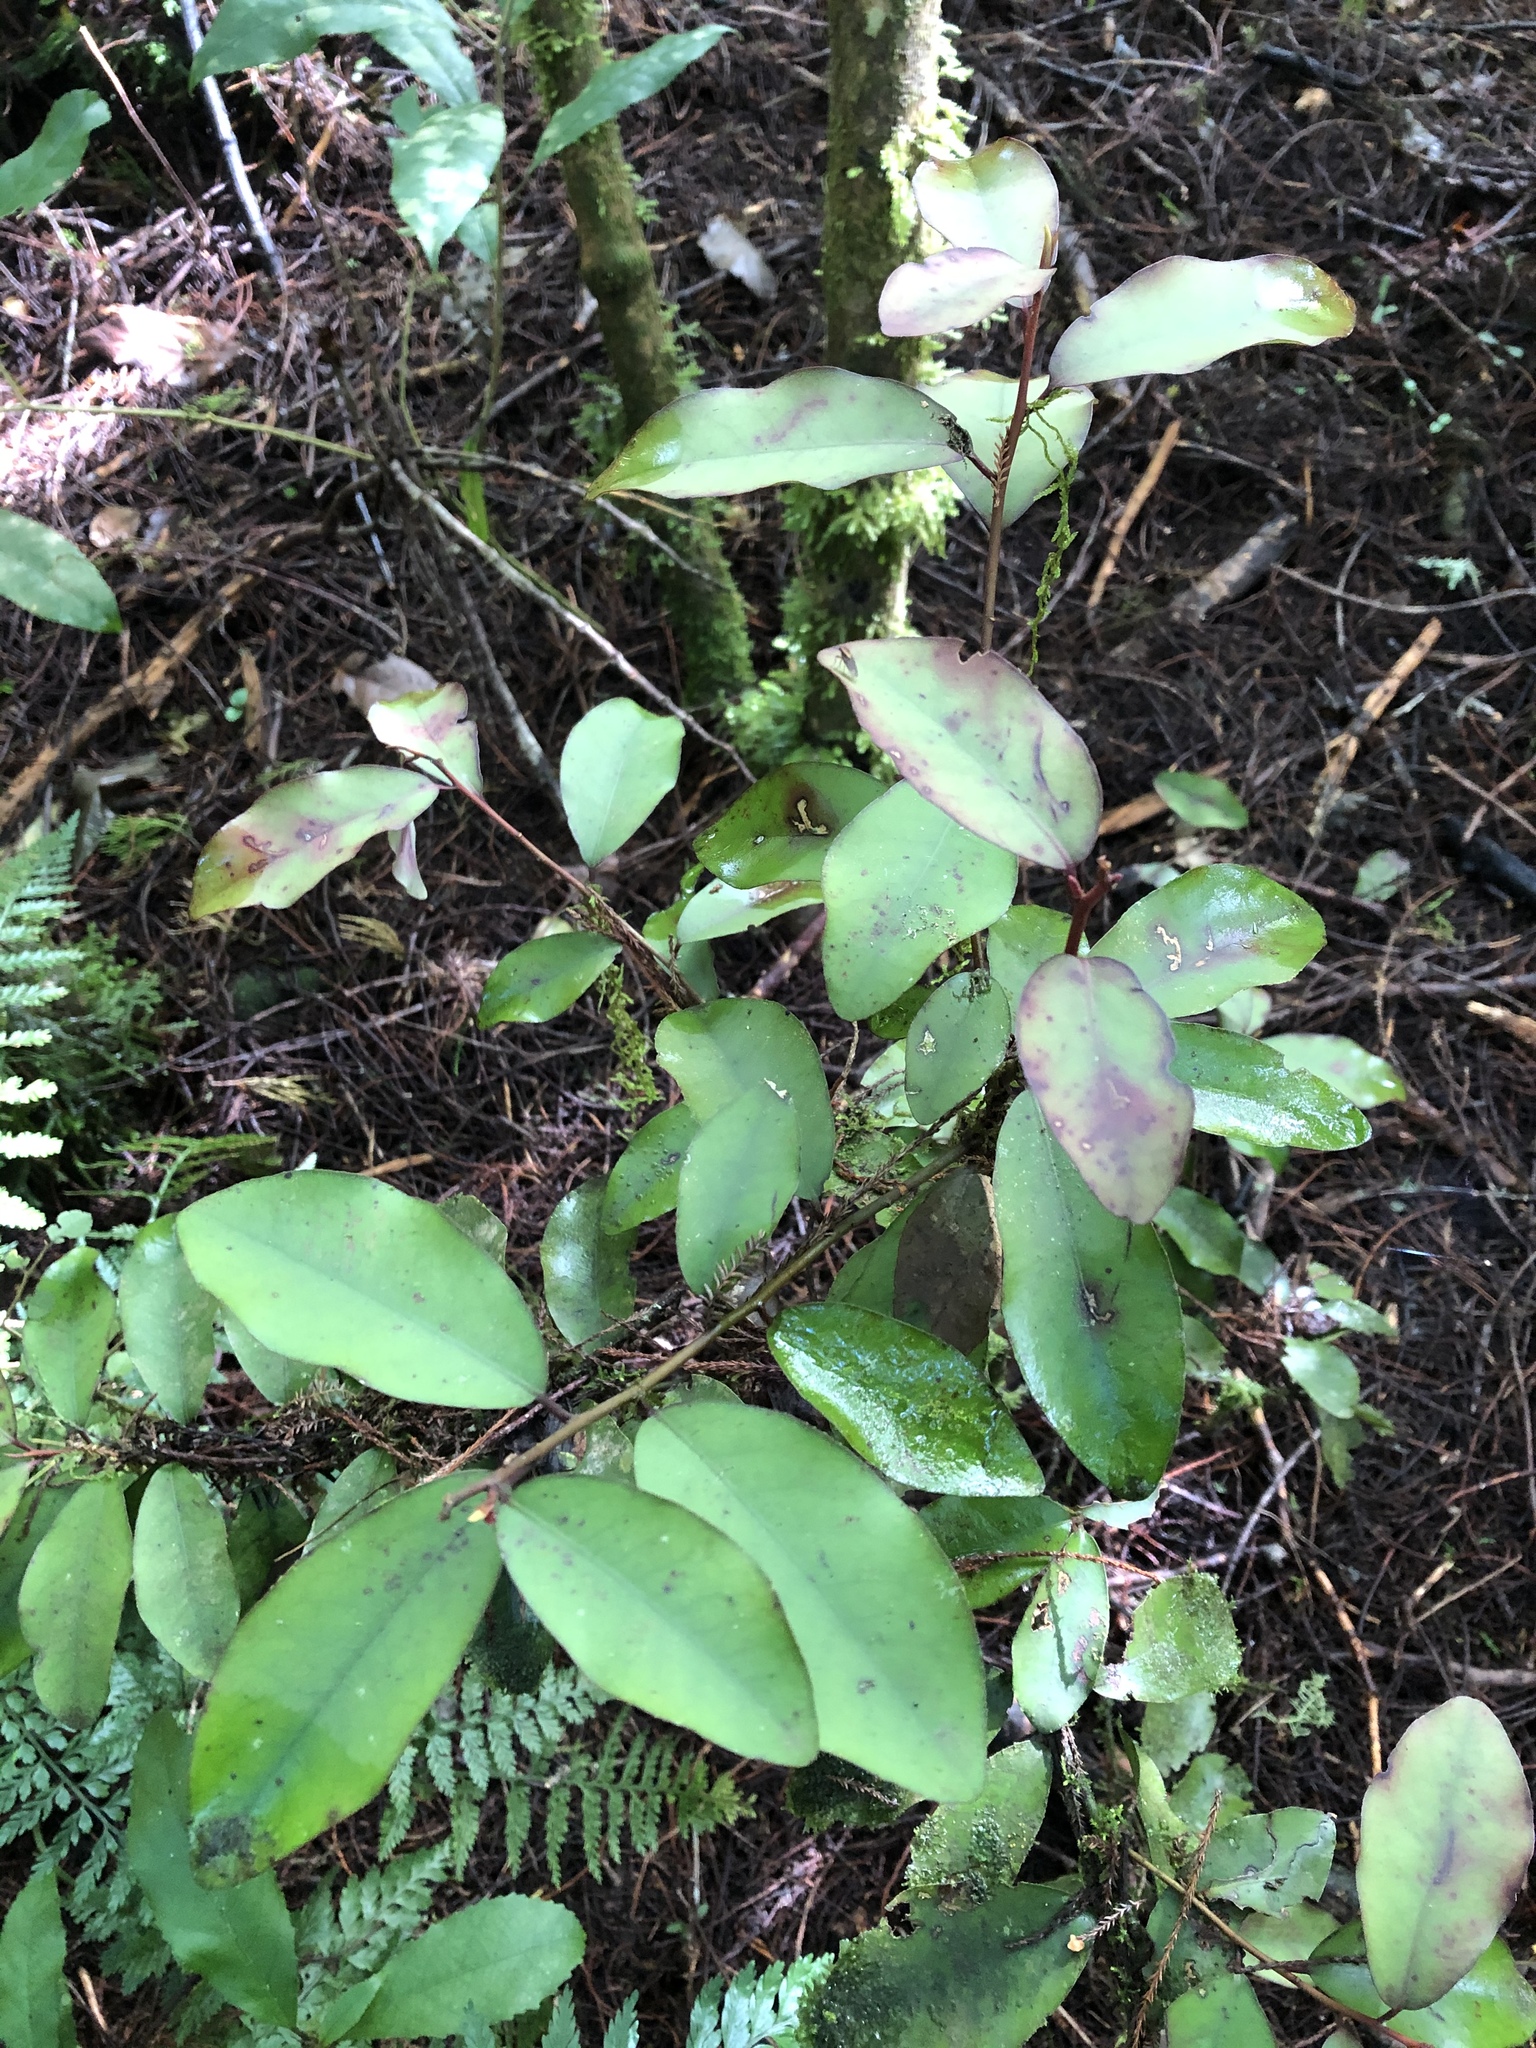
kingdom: Plantae
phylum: Tracheophyta
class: Magnoliopsida
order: Canellales
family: Winteraceae
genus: Pseudowintera
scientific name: Pseudowintera colorata
